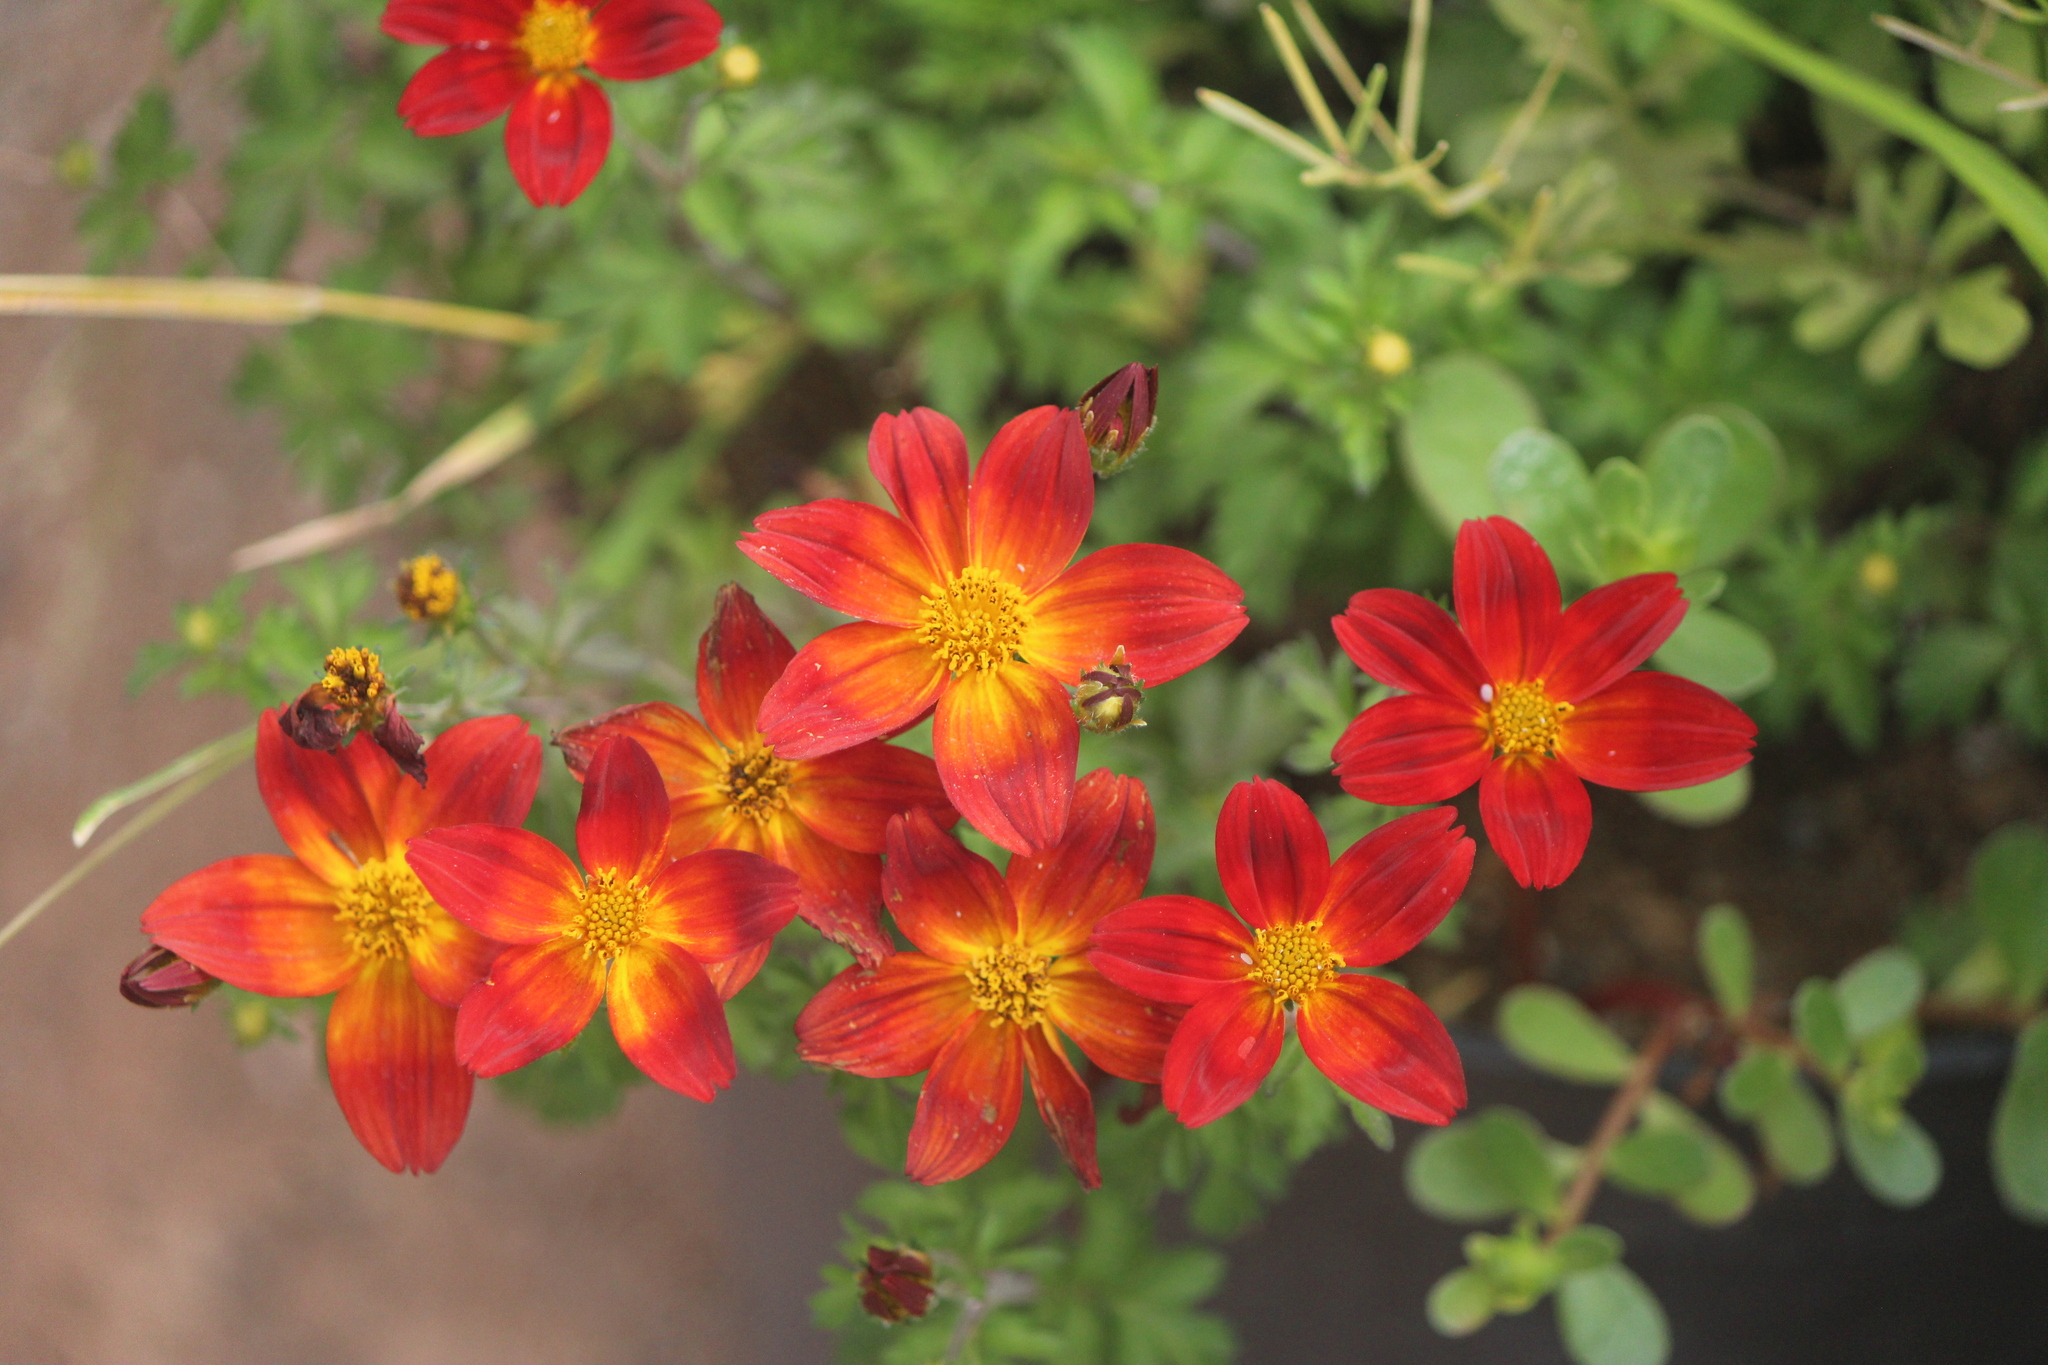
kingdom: Plantae
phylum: Tracheophyta
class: Magnoliopsida
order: Asterales
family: Asteraceae
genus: Dahlia
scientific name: Dahlia coccinea
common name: Red dahlia
